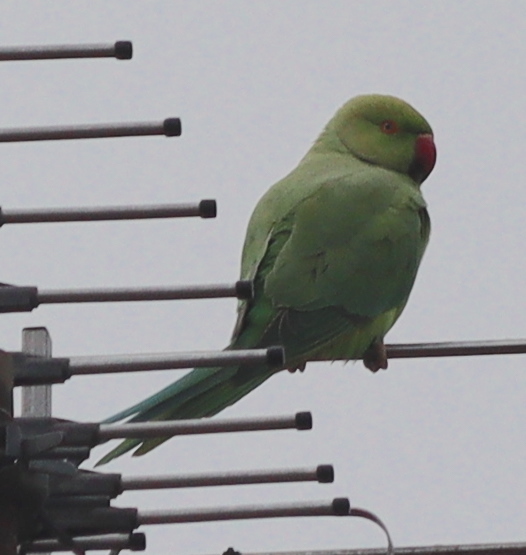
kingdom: Animalia
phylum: Chordata
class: Aves
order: Psittaciformes
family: Psittacidae
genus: Psittacula
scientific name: Psittacula krameri
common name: Rose-ringed parakeet
